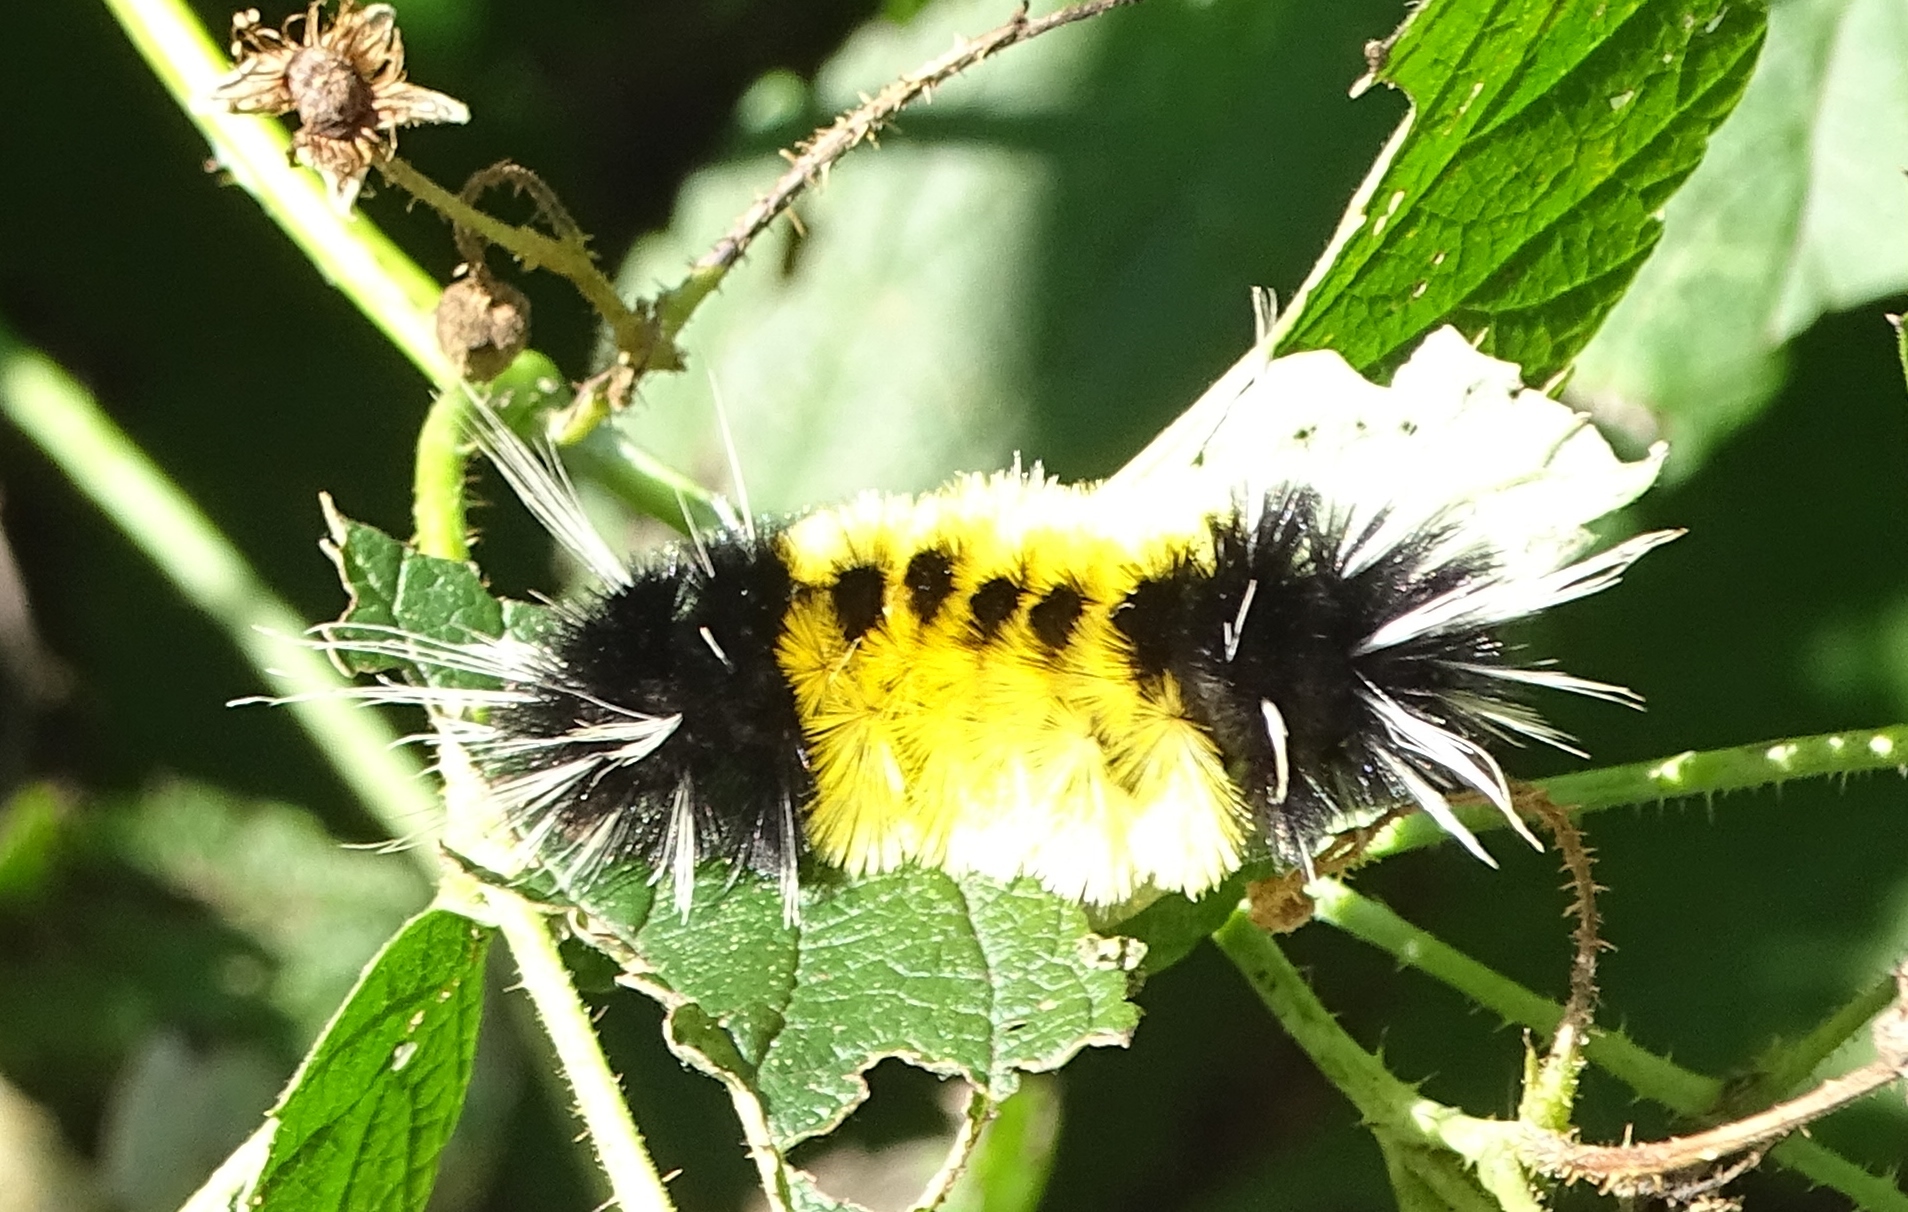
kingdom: Animalia
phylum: Arthropoda
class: Insecta
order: Lepidoptera
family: Erebidae
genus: Lophocampa
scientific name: Lophocampa maculata
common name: Spotted tussock moth
